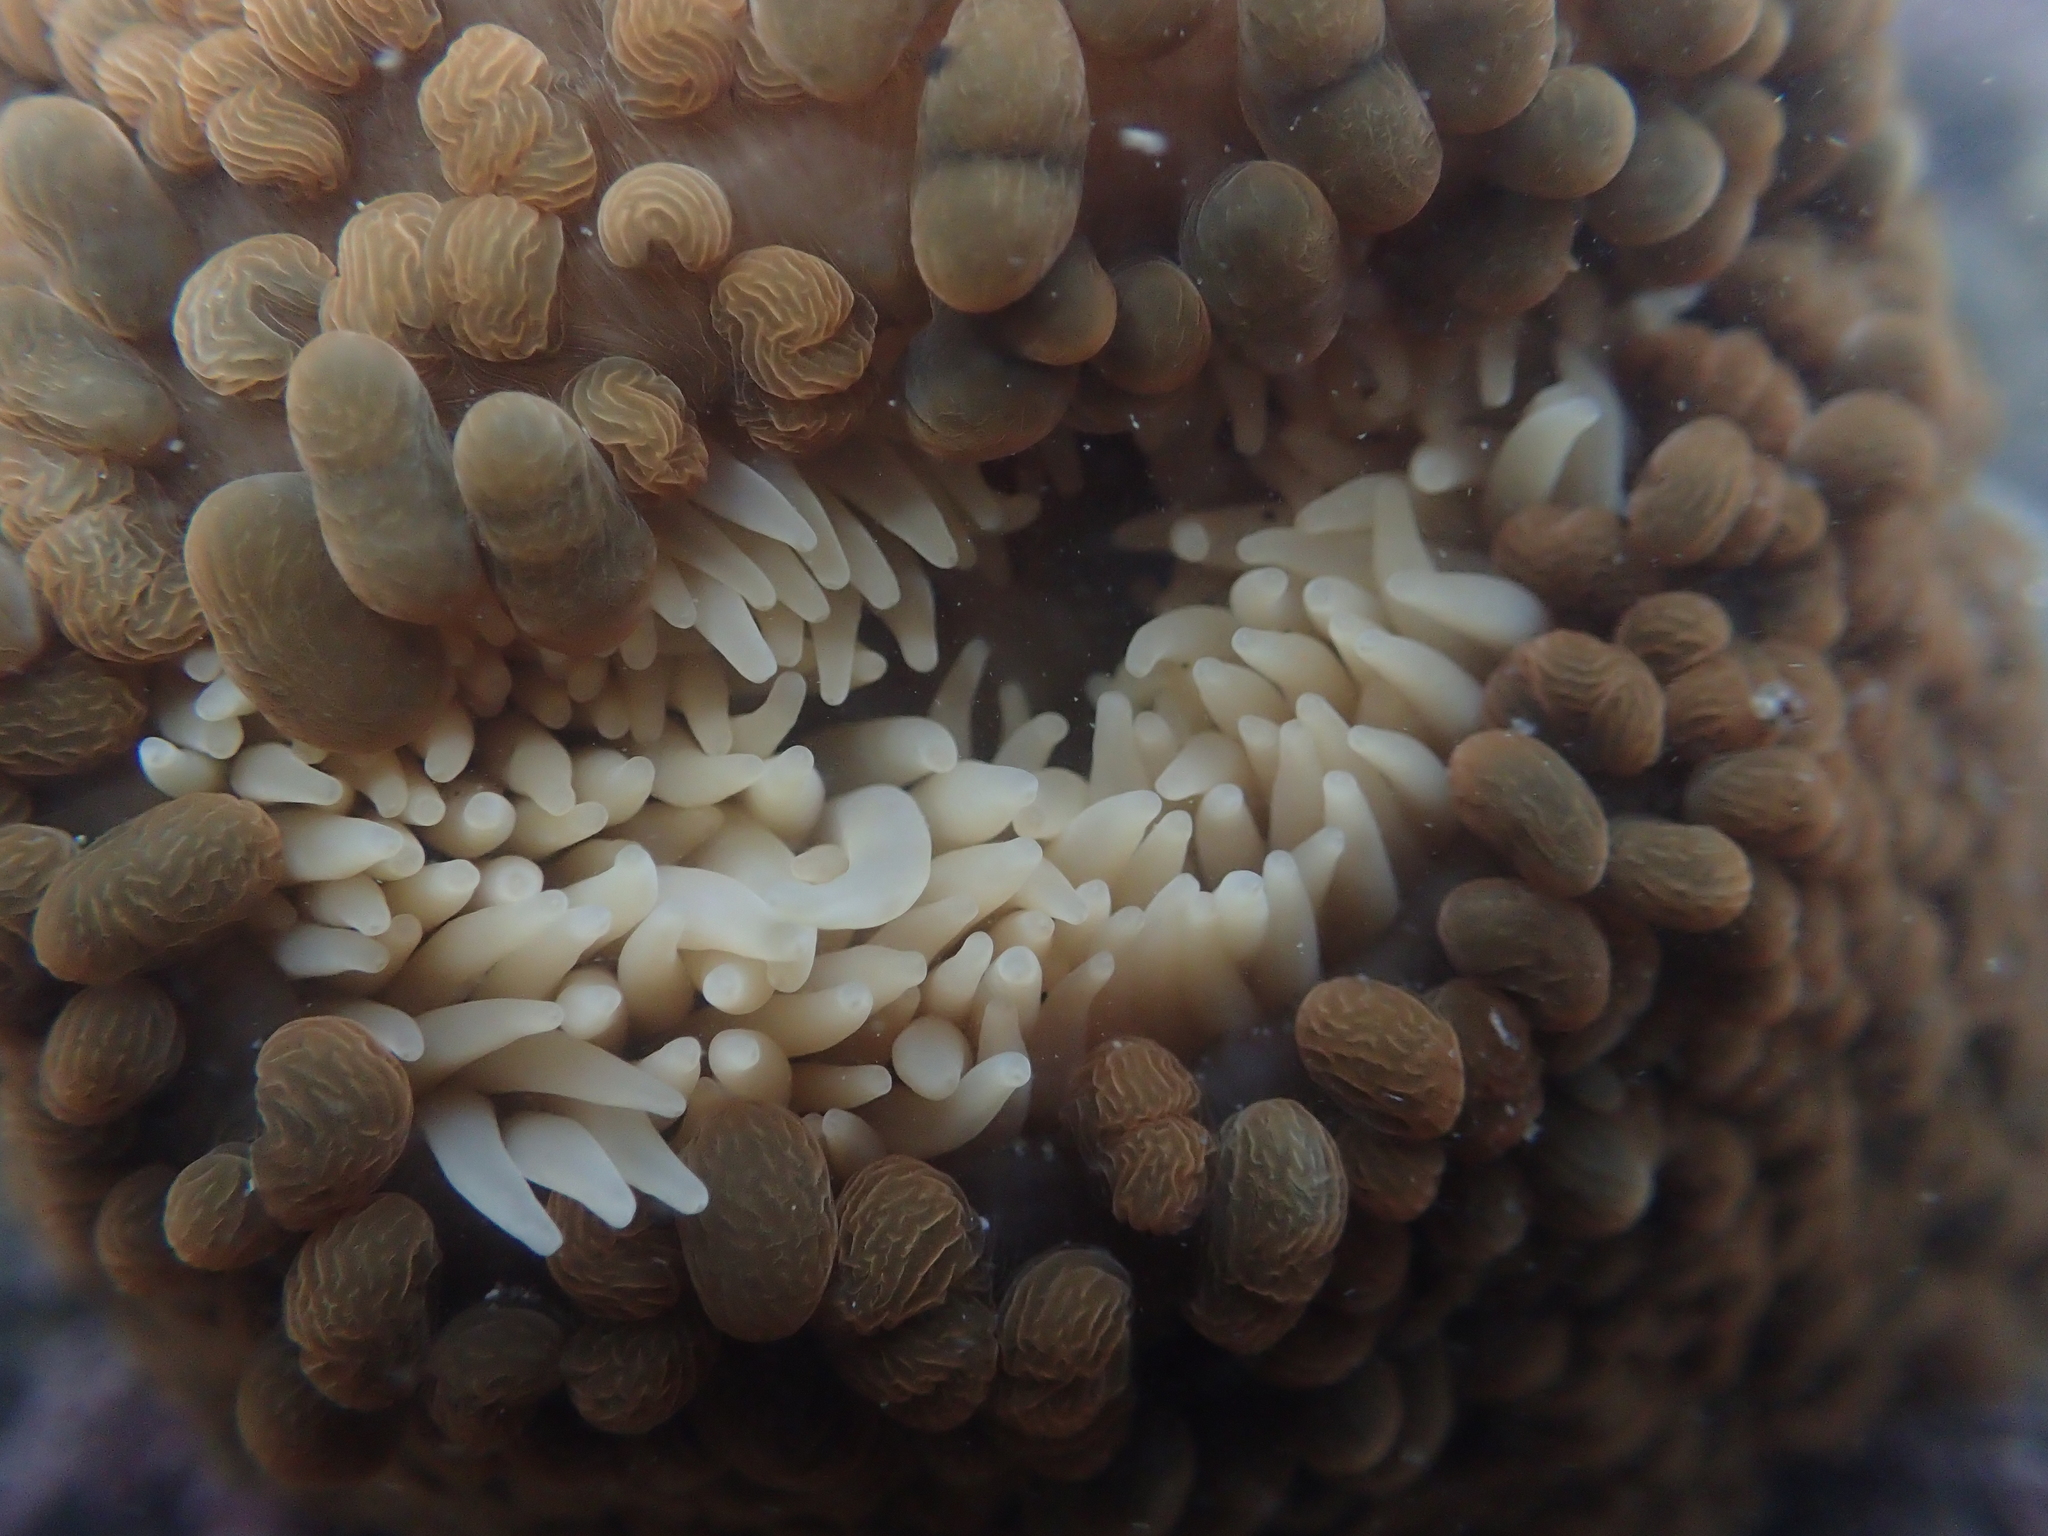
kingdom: Animalia
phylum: Cnidaria
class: Anthozoa
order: Actiniaria
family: Actiniidae
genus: Phlyctenactis
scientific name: Phlyctenactis tuberculosa
